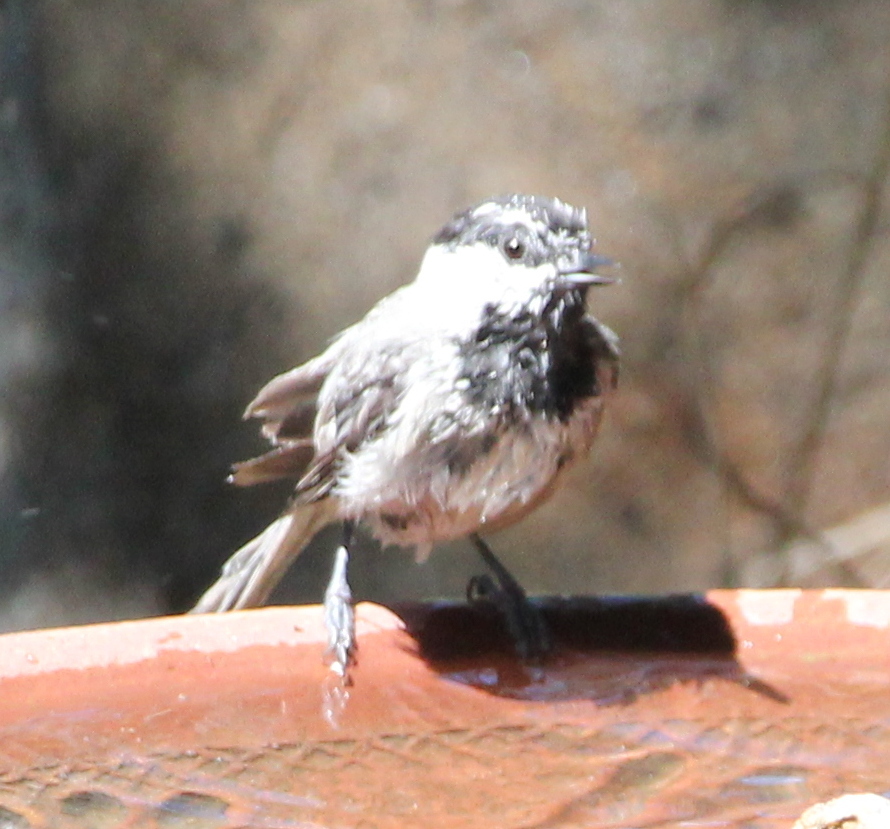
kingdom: Animalia
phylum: Chordata
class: Aves
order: Passeriformes
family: Paridae
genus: Poecile
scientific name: Poecile gambeli
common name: Mountain chickadee
